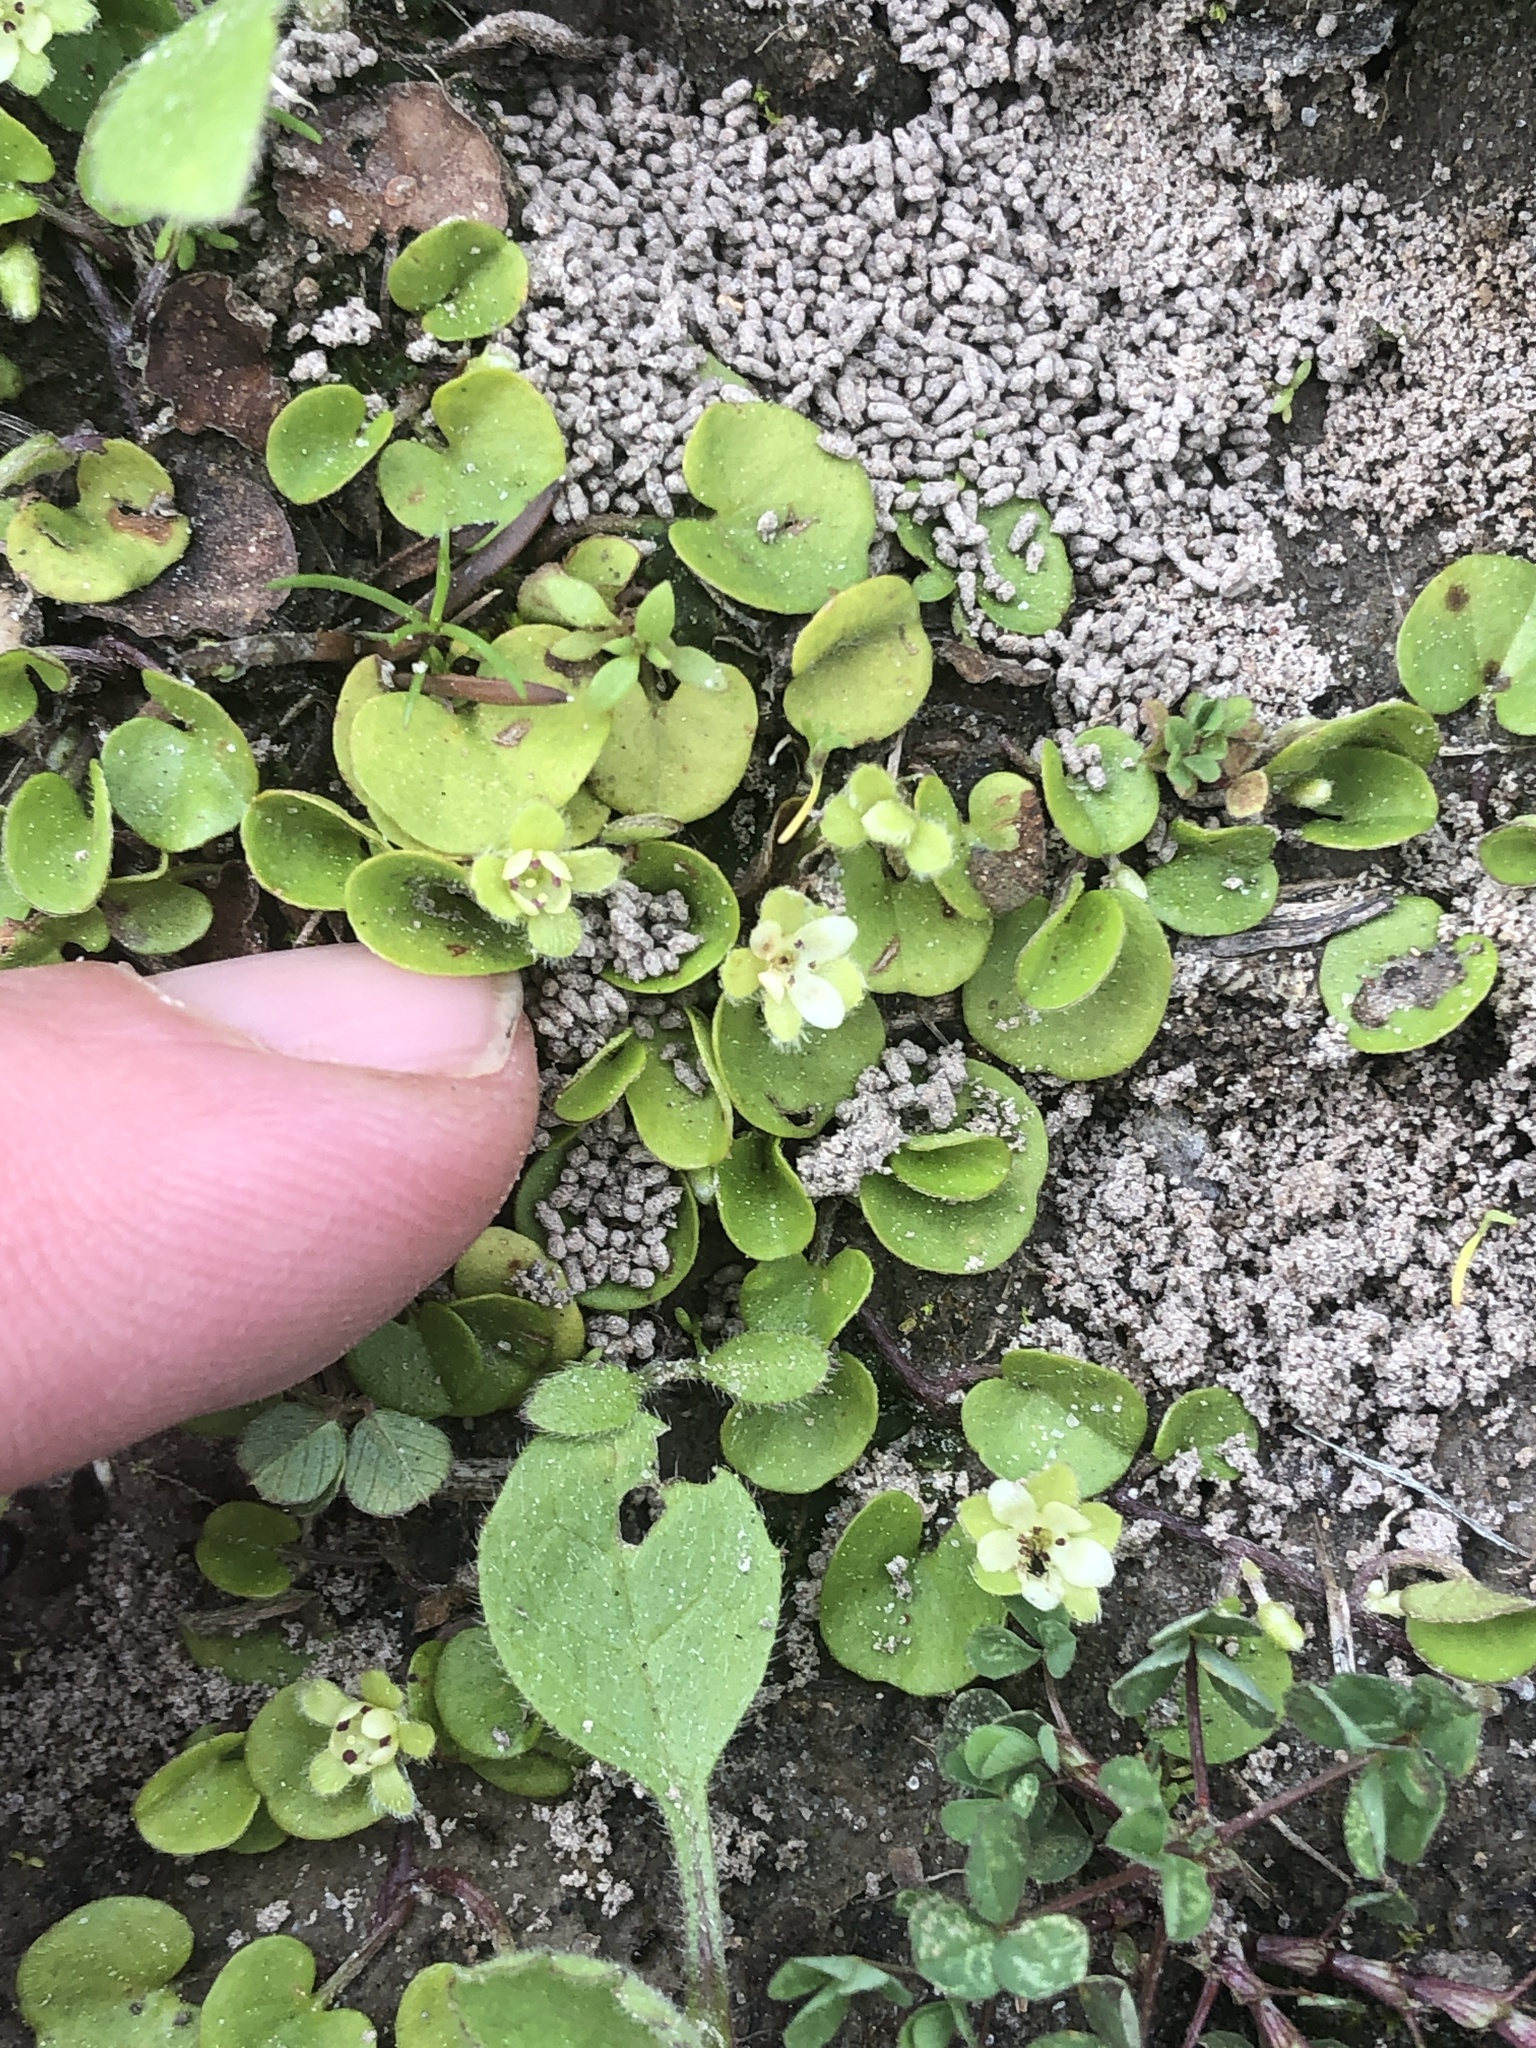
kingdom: Plantae
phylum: Tracheophyta
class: Magnoliopsida
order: Solanales
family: Convolvulaceae
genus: Dichondra
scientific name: Dichondra carolinensis
